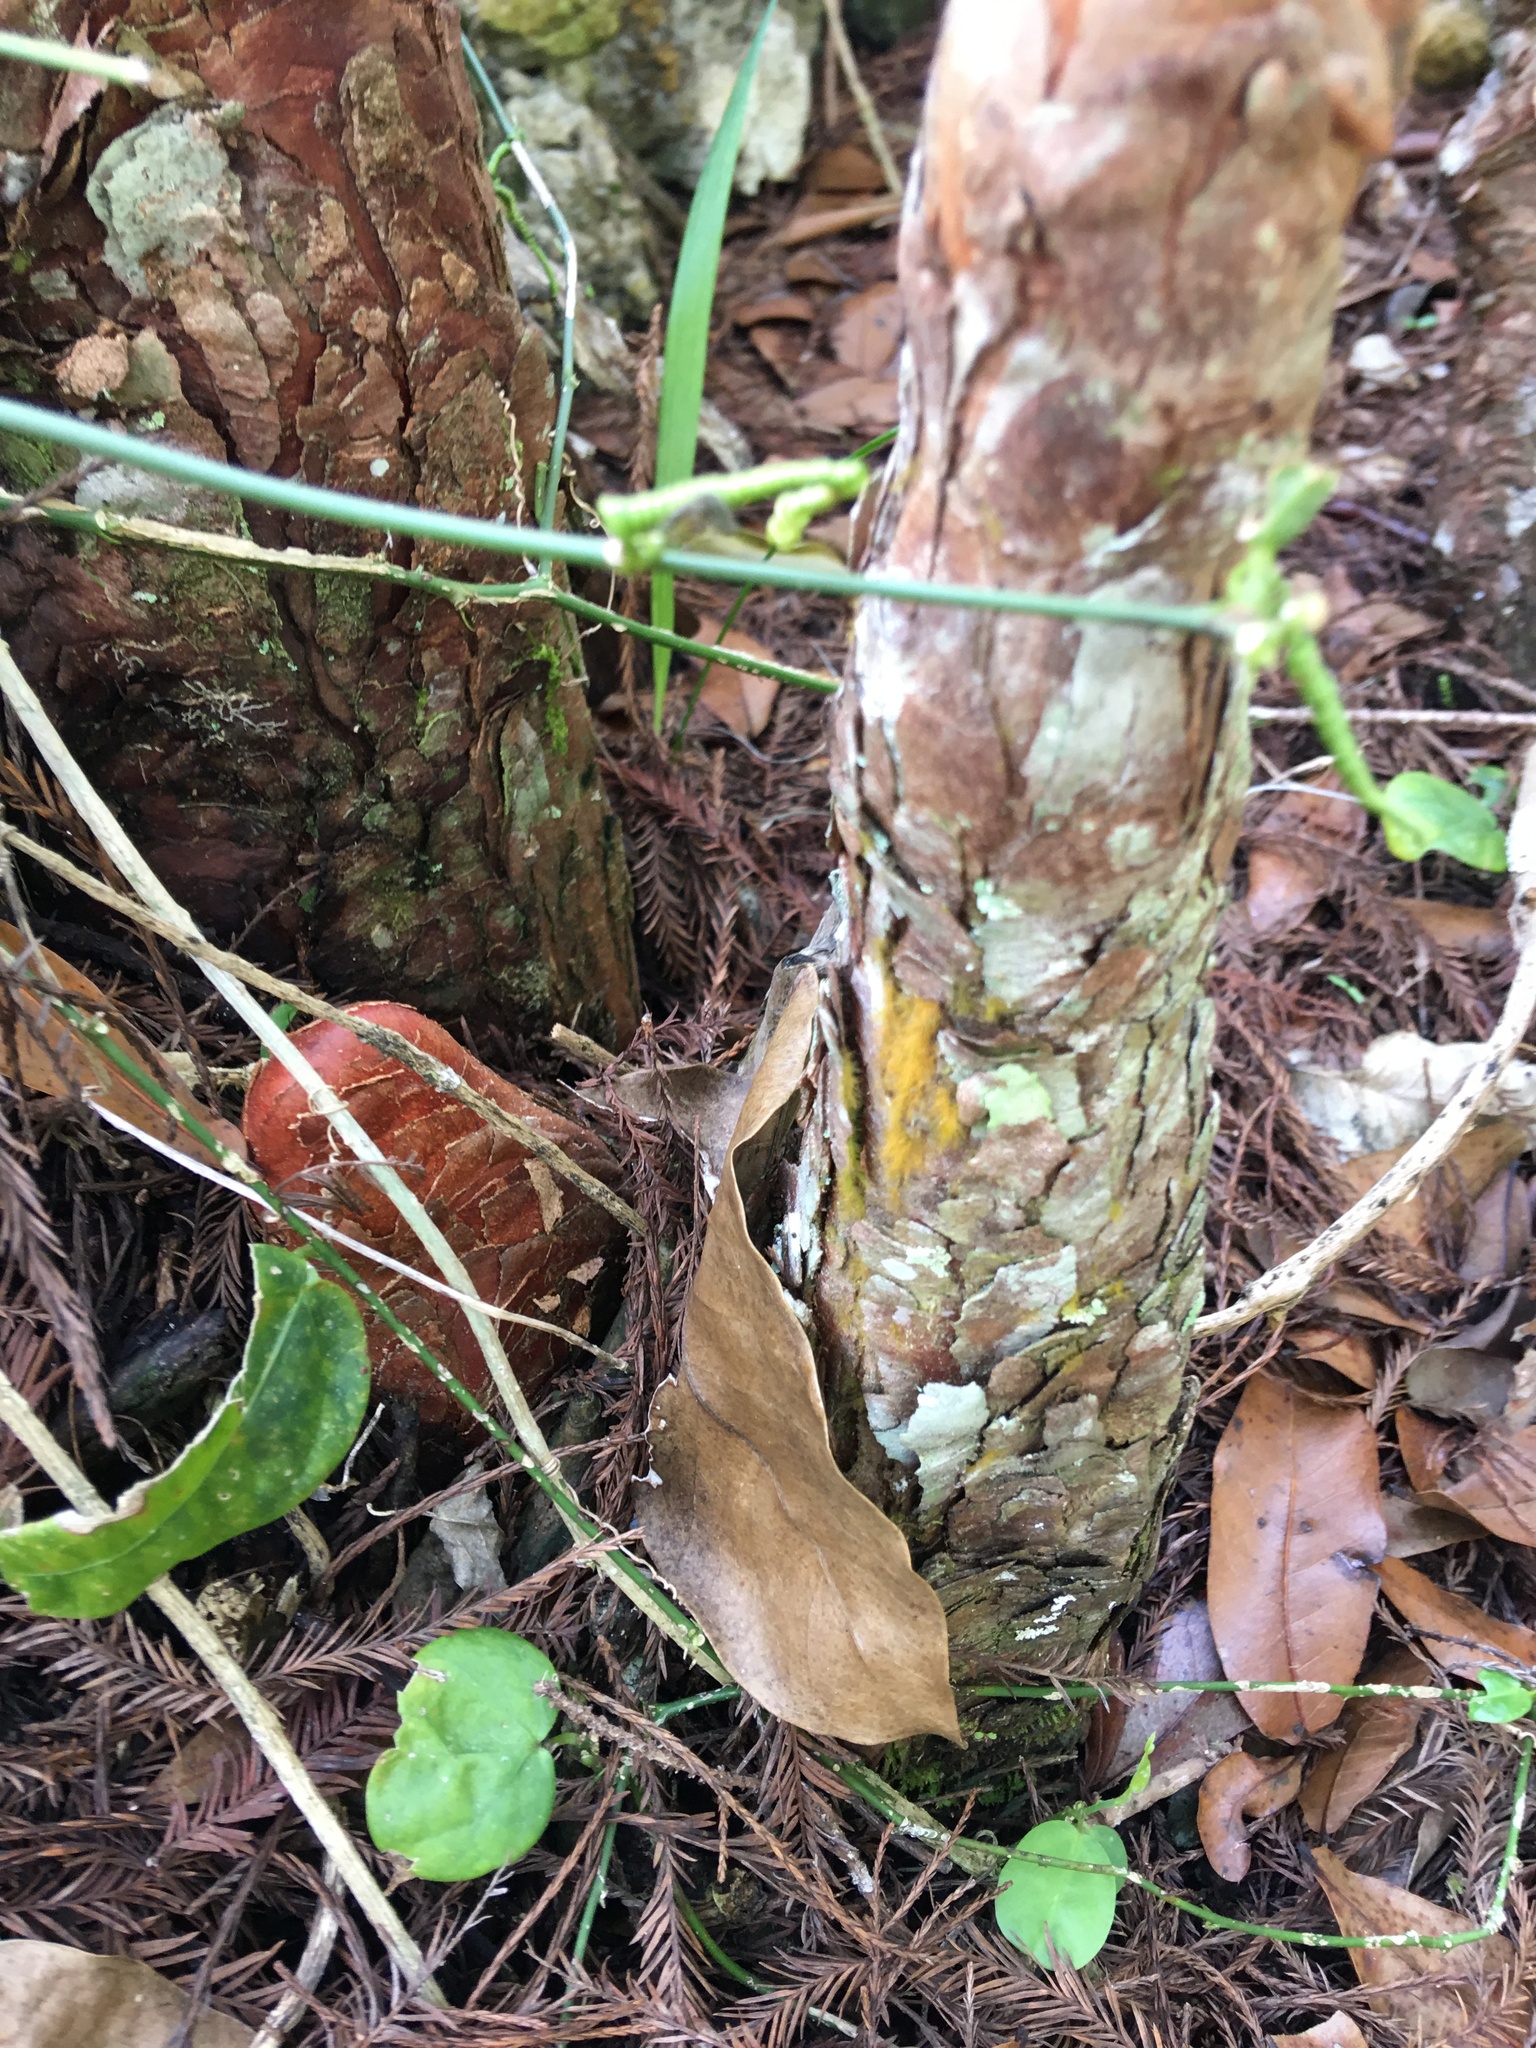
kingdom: Plantae
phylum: Tracheophyta
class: Pinopsida
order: Pinales
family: Cupressaceae
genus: Taxodium
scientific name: Taxodium distichum
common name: Bald cypress
